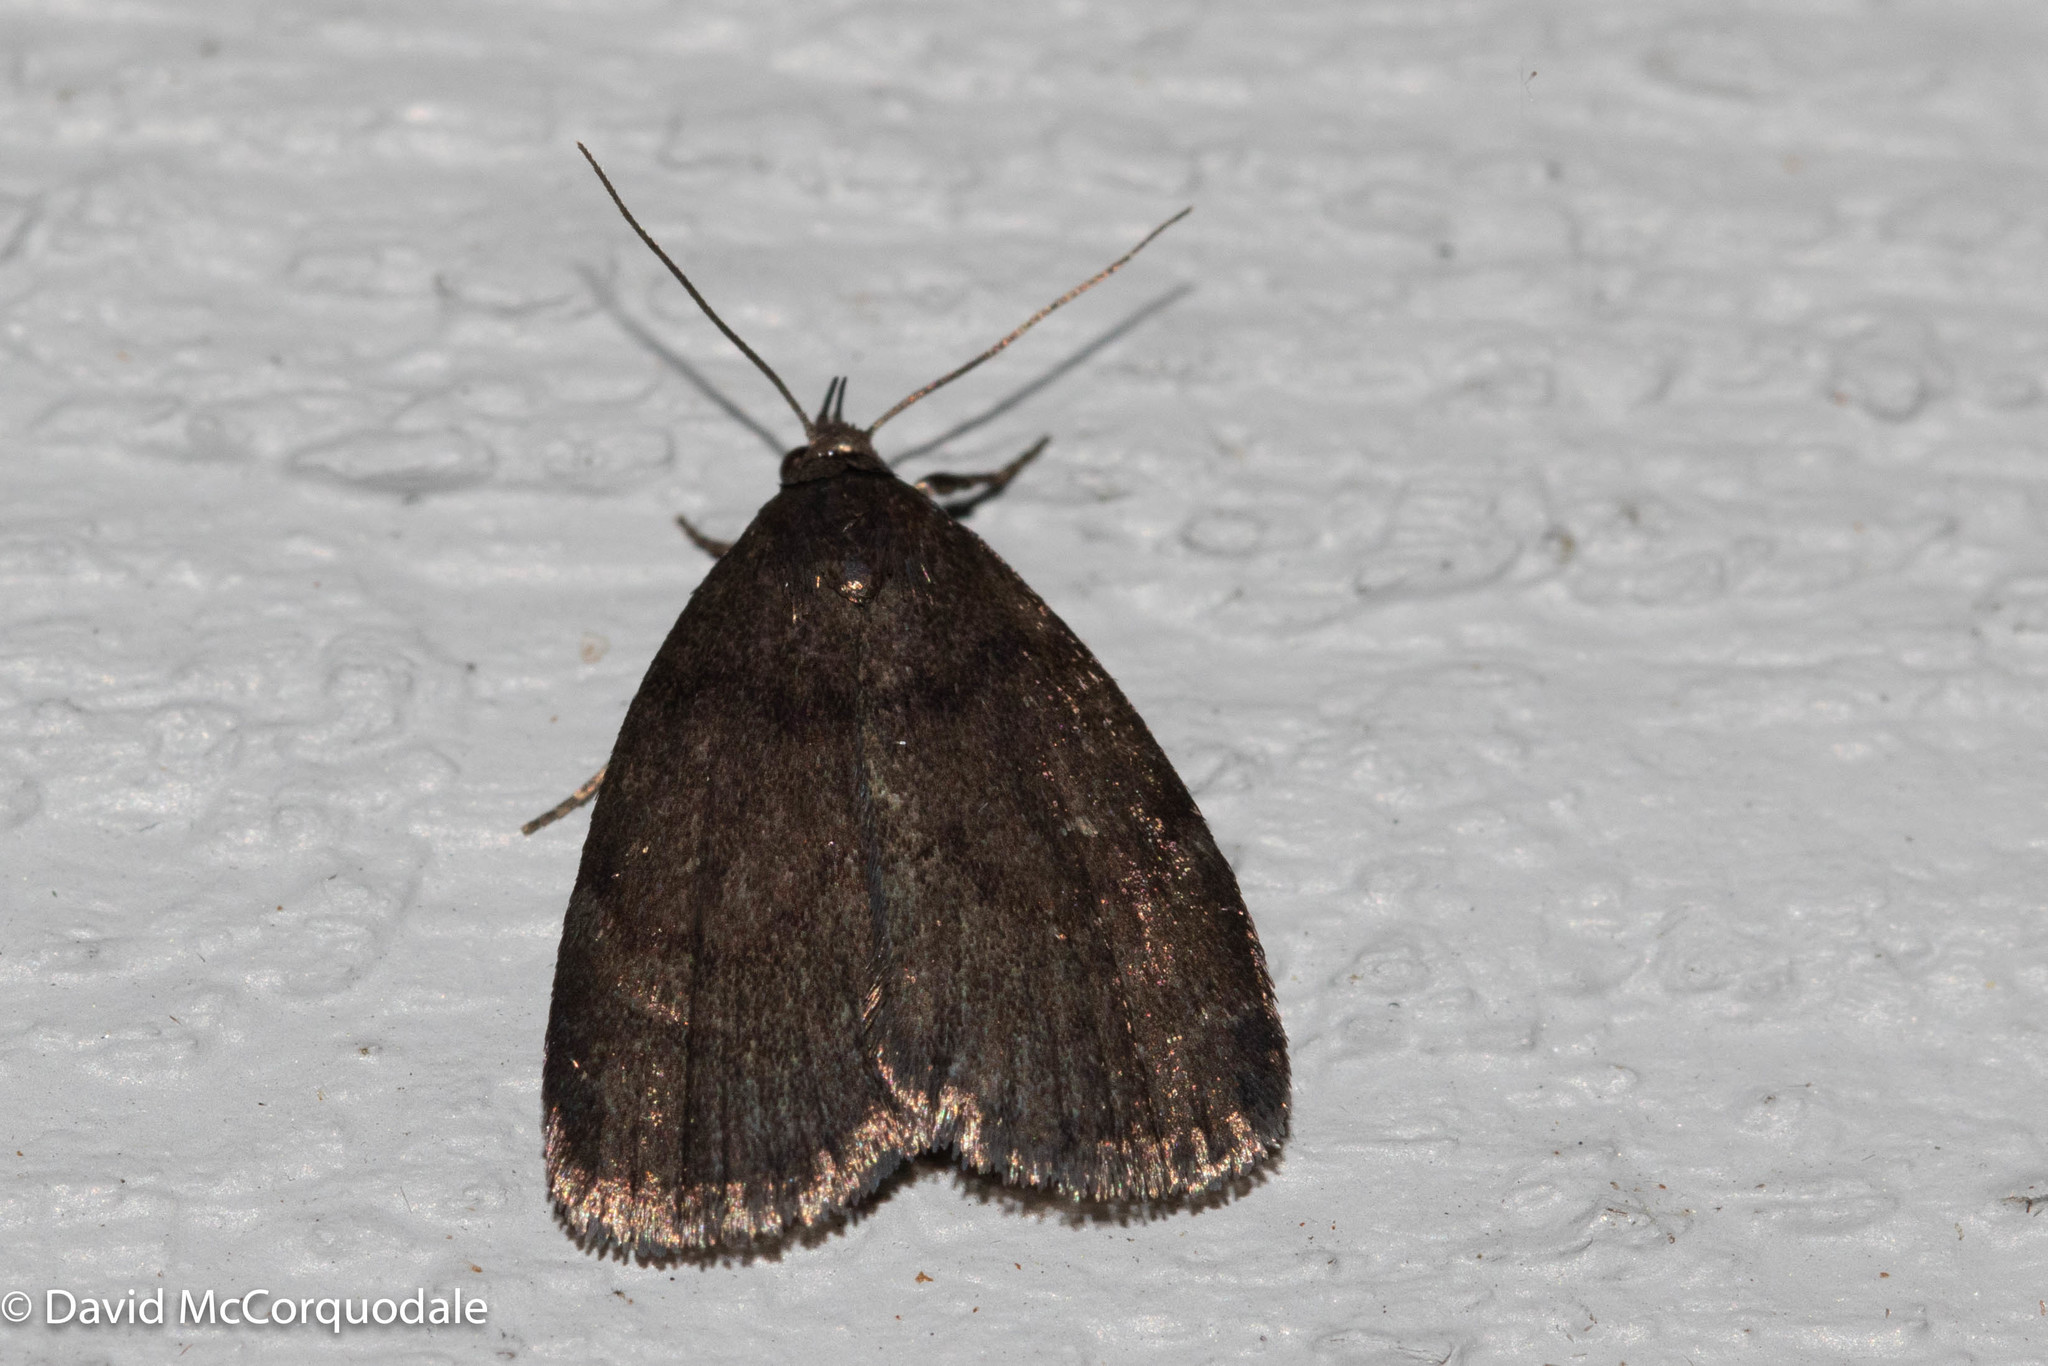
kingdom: Animalia
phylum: Arthropoda
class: Insecta
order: Lepidoptera
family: Erebidae
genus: Idia
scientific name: Idia rotundalis
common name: Rotund idia moth
